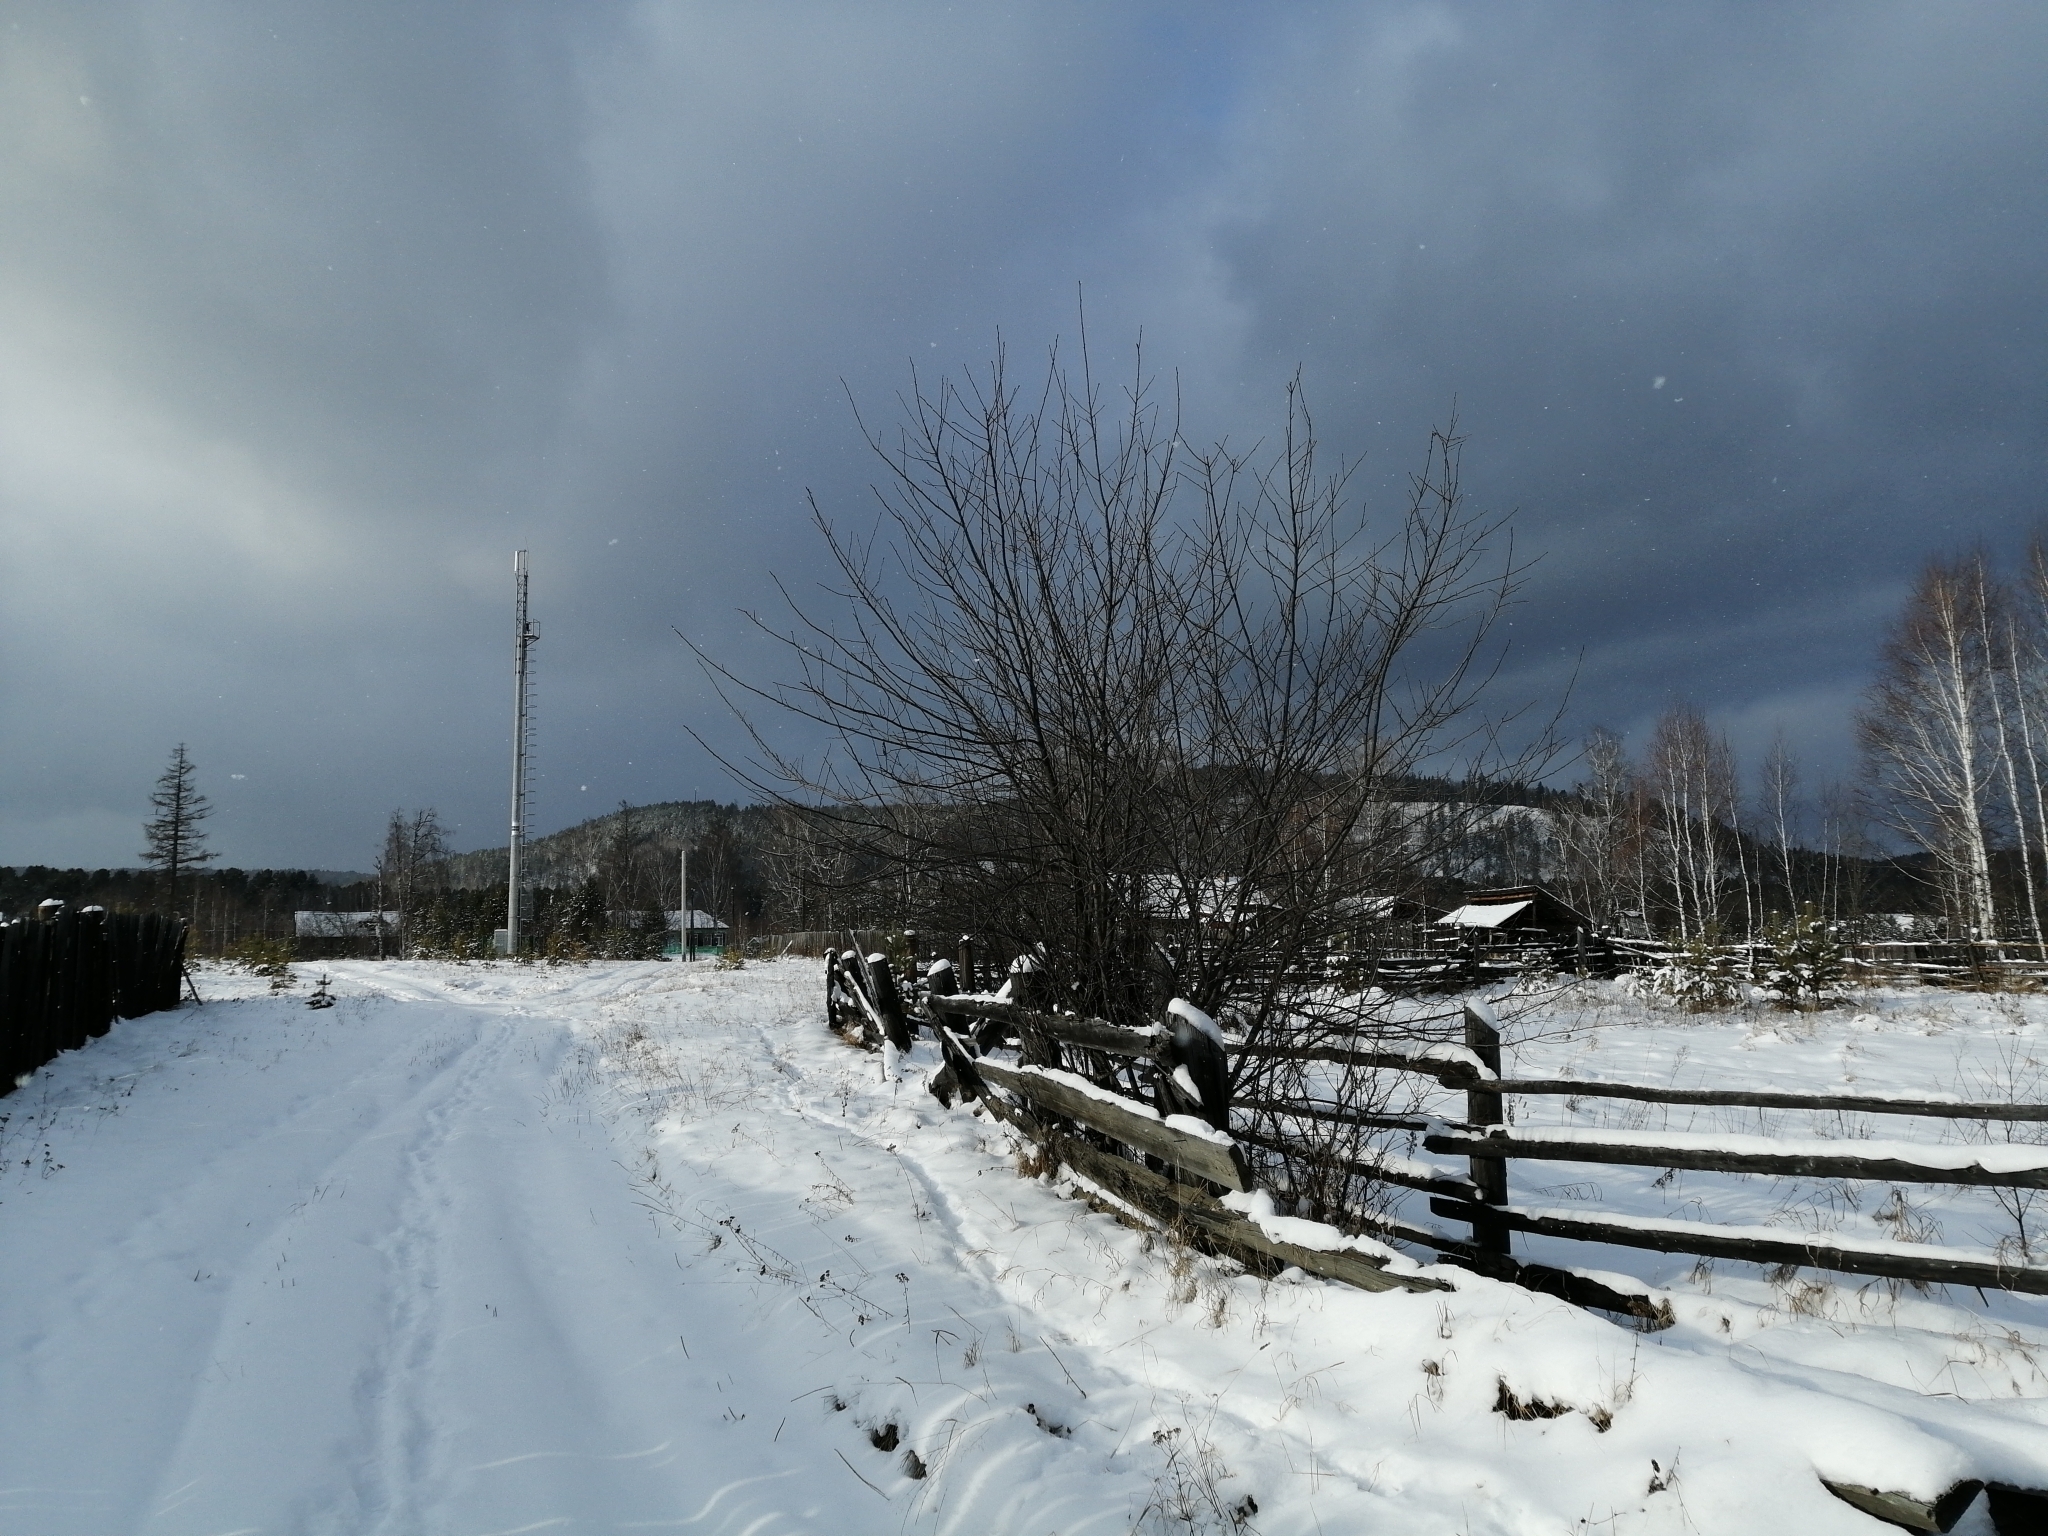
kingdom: Plantae
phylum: Tracheophyta
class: Magnoliopsida
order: Rosales
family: Rosaceae
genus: Prunus
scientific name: Prunus padus
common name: Bird cherry
